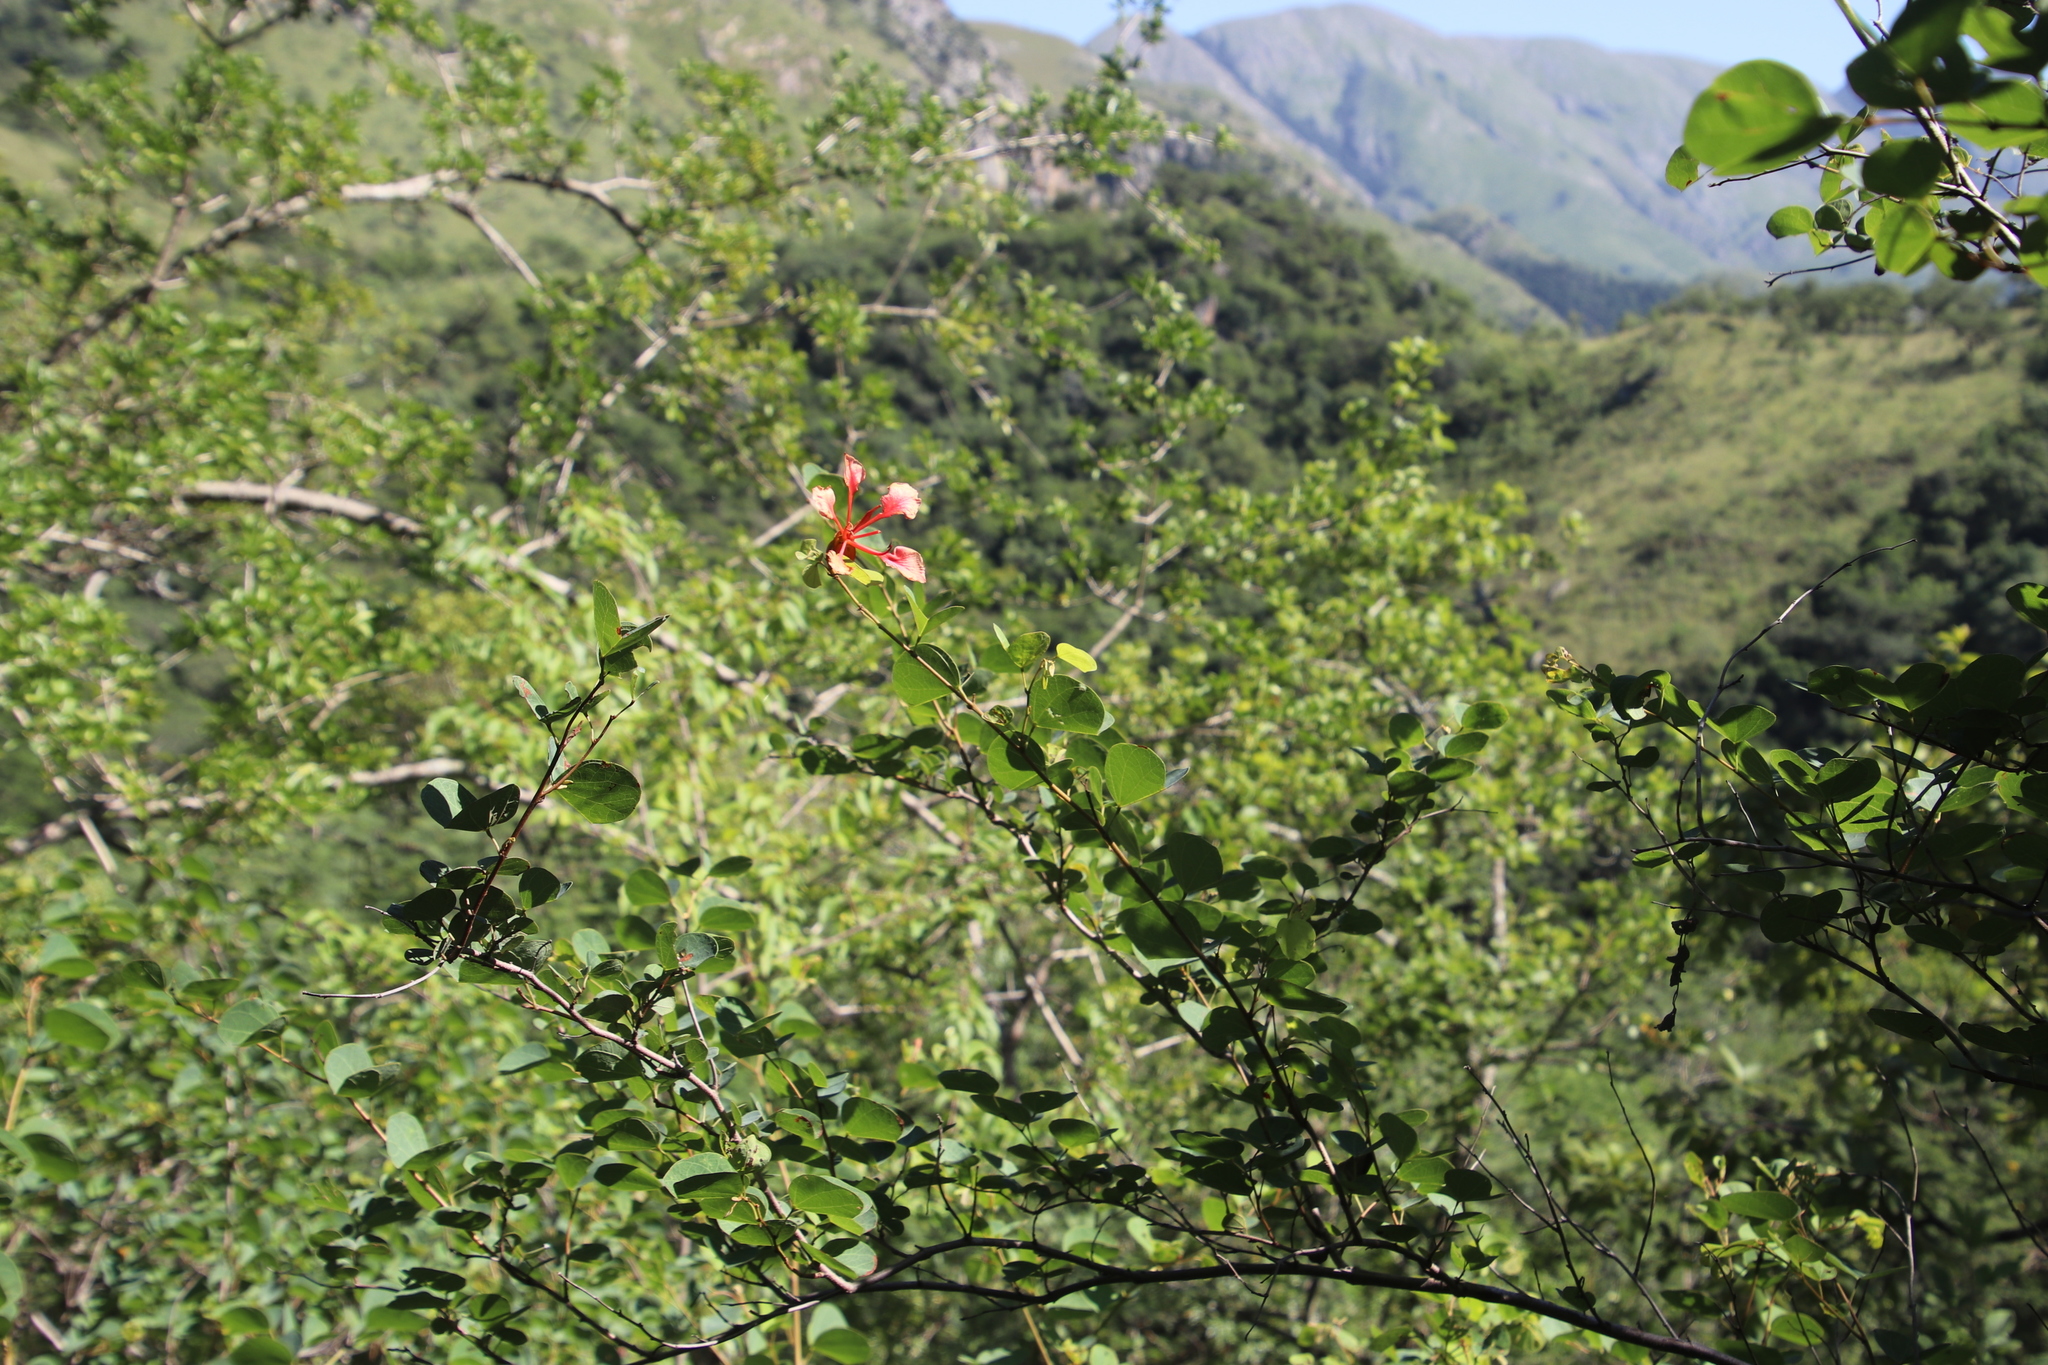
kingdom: Plantae
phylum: Tracheophyta
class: Magnoliopsida
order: Fabales
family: Fabaceae
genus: Bauhinia
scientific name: Bauhinia galpinii
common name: African plume
